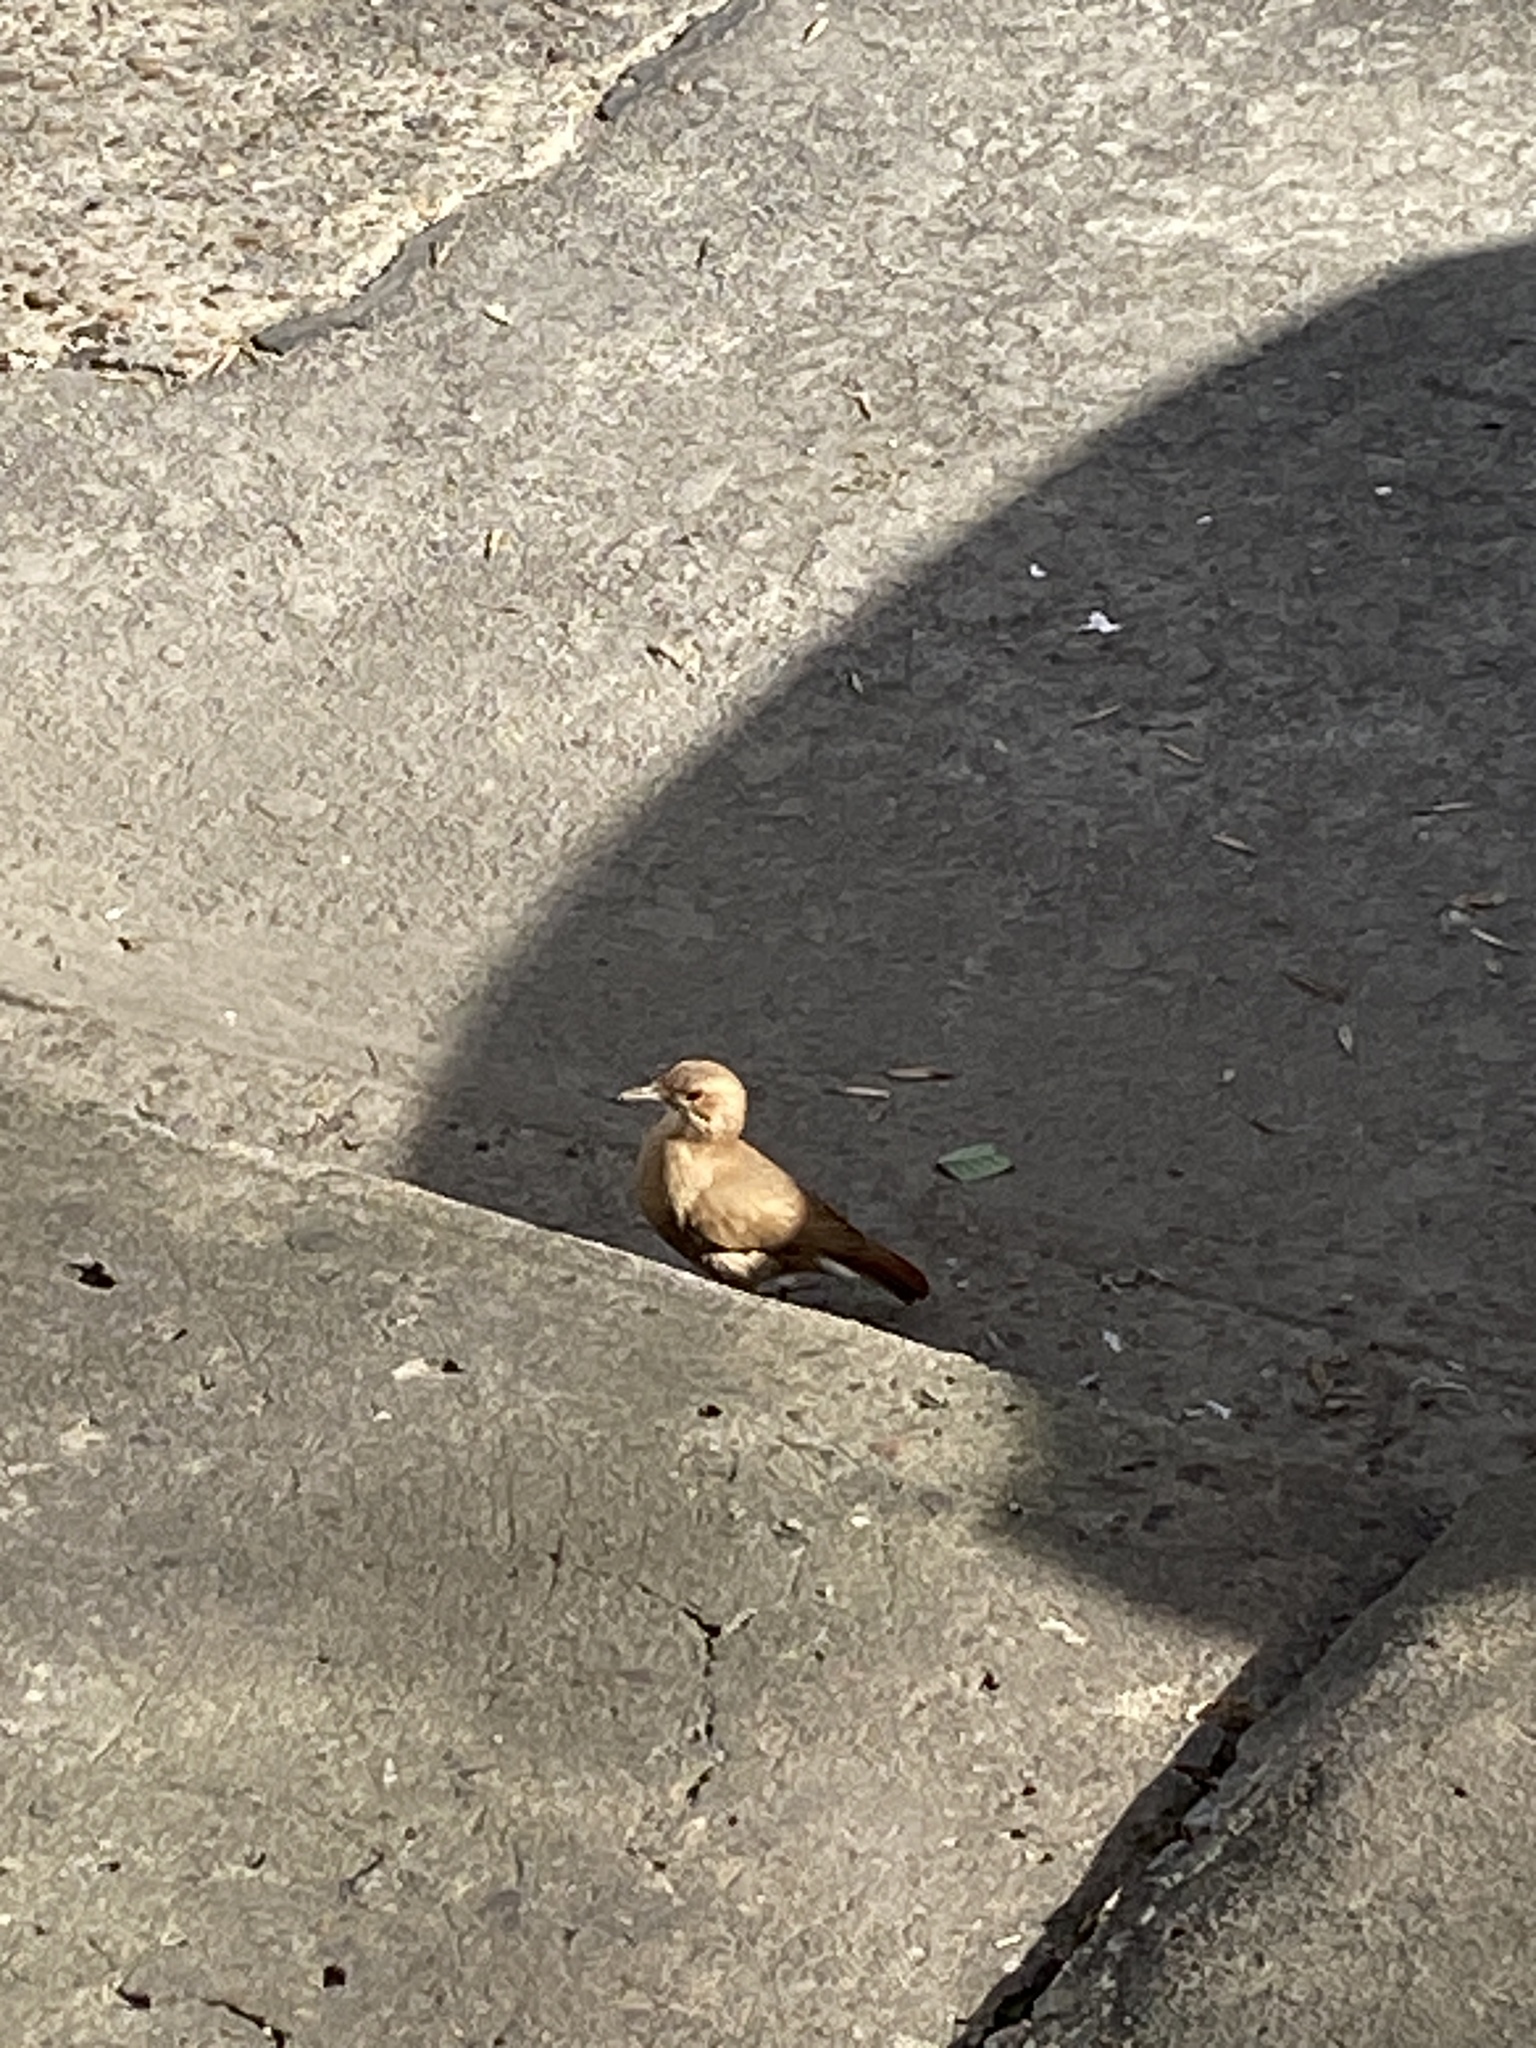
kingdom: Animalia
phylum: Chordata
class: Aves
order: Passeriformes
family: Furnariidae
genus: Furnarius
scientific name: Furnarius rufus
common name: Rufous hornero
